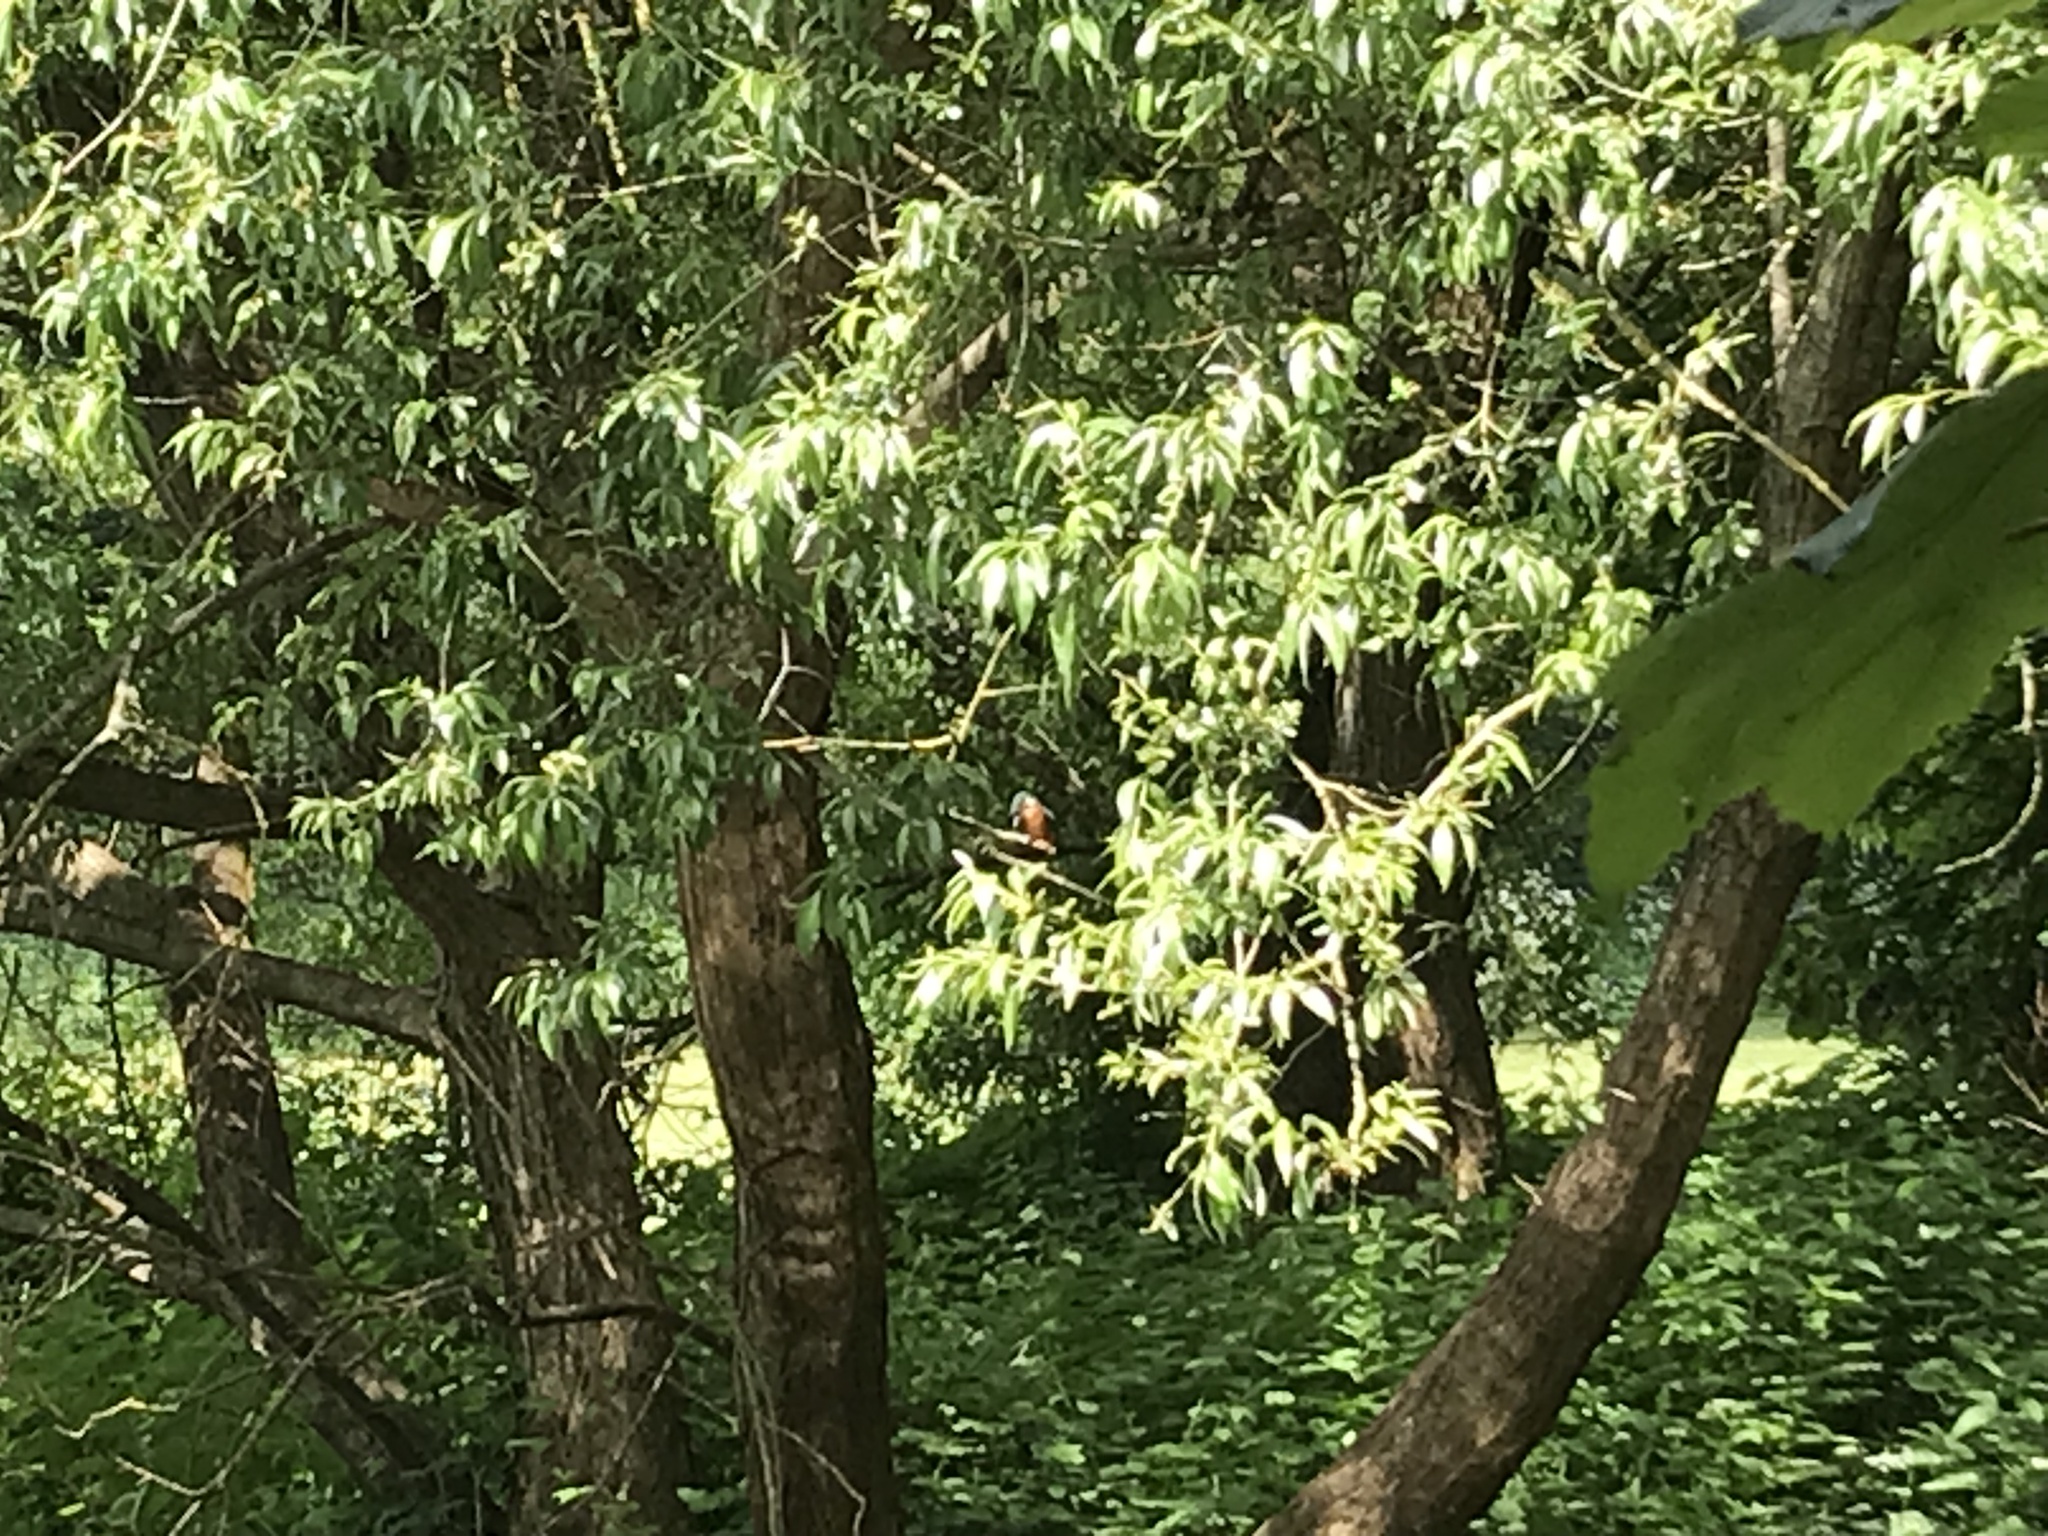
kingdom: Animalia
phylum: Chordata
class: Aves
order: Coraciiformes
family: Alcedinidae
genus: Alcedo
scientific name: Alcedo atthis
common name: Common kingfisher
